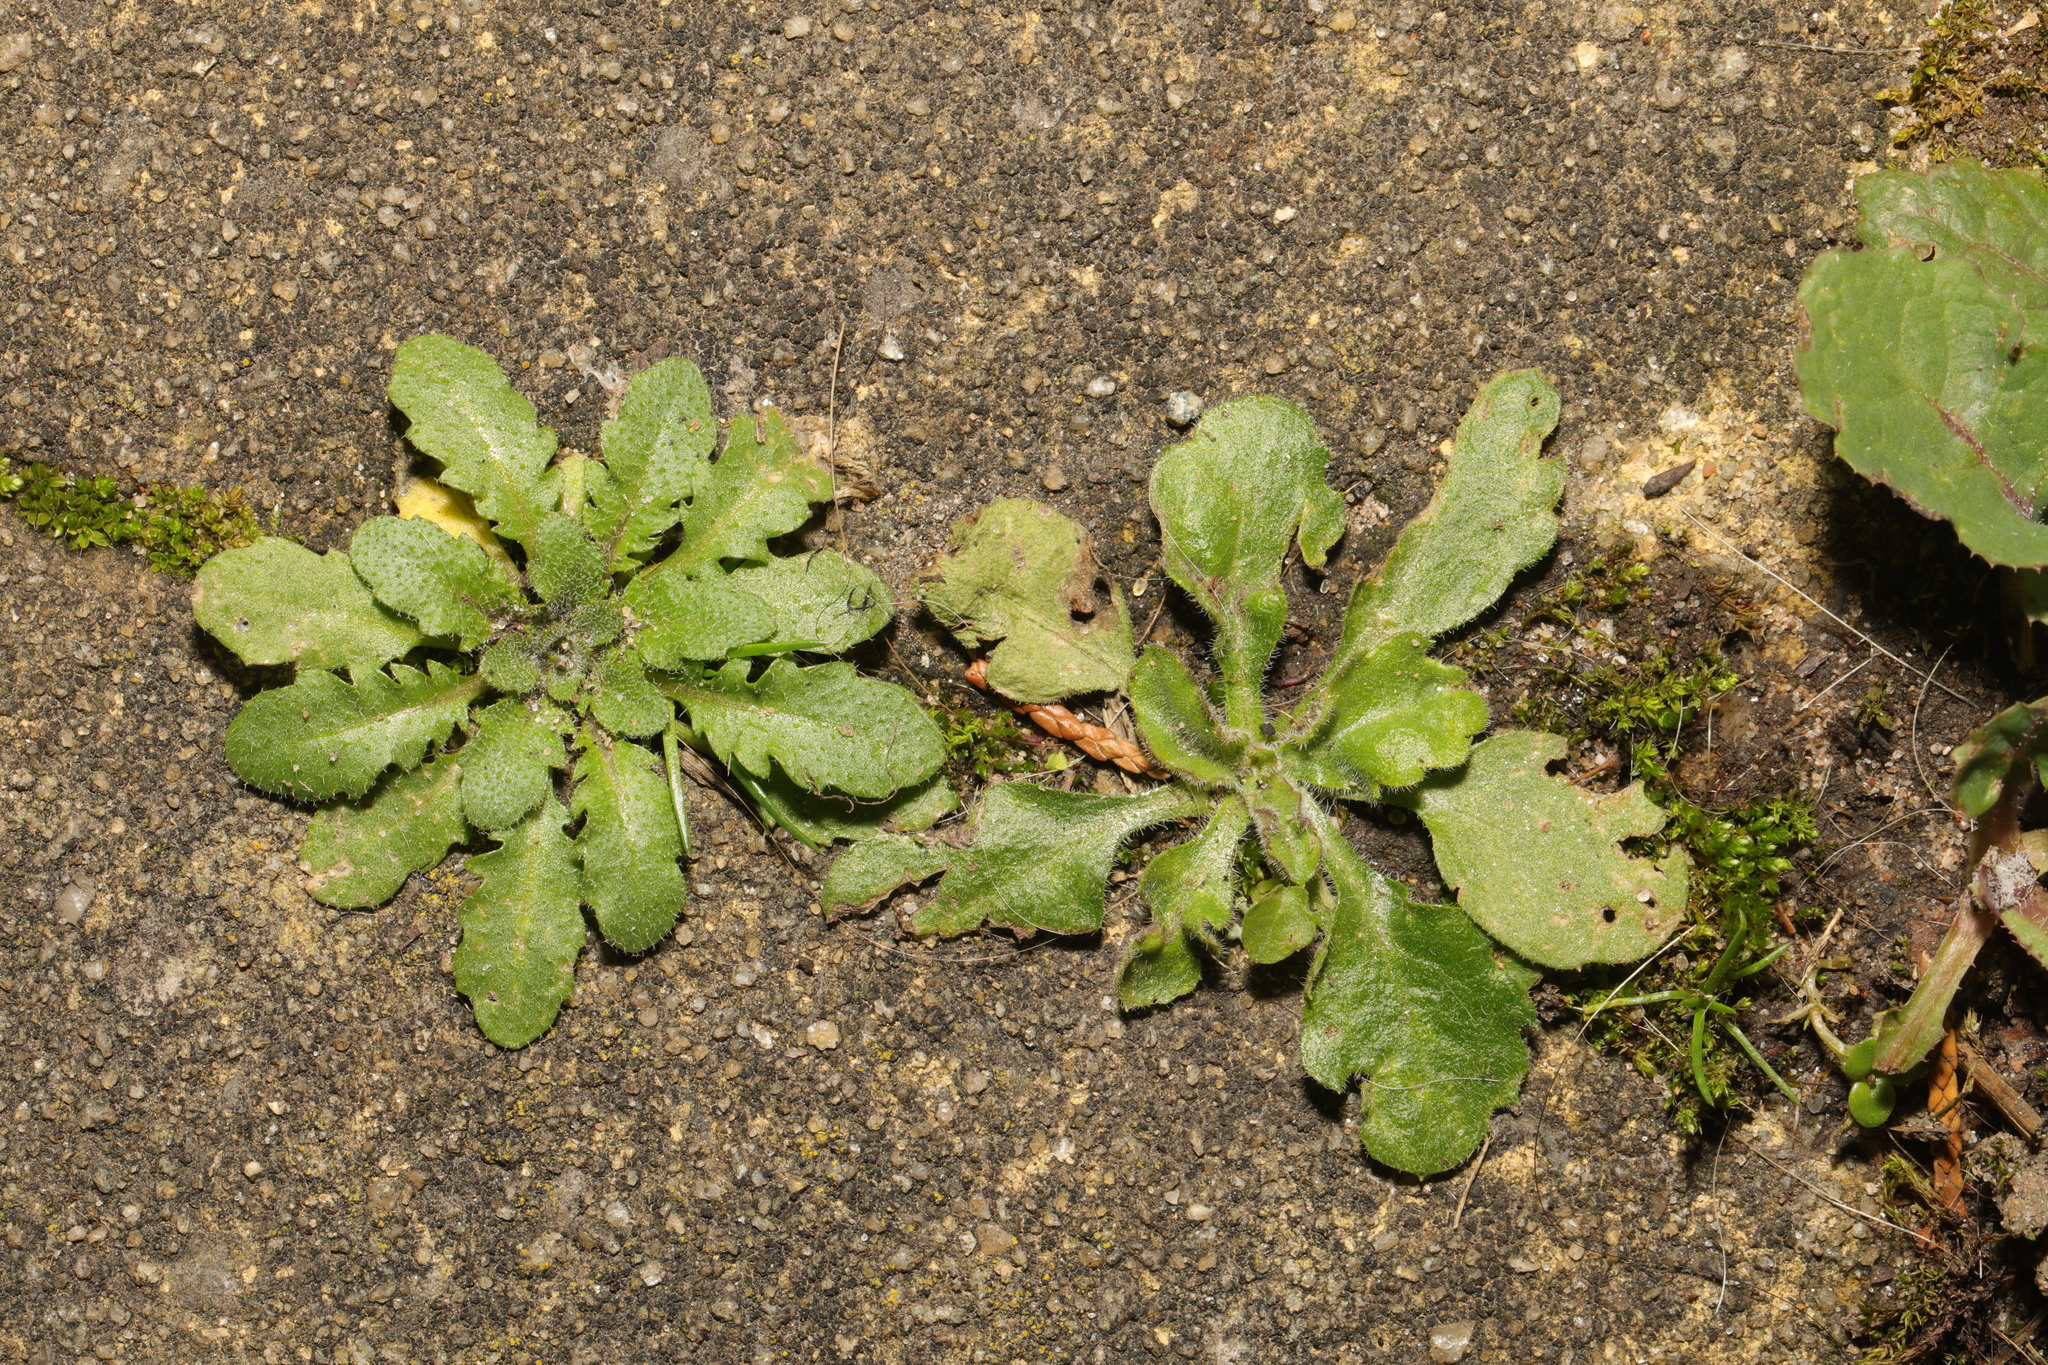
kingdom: Plantae
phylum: Tracheophyta
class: Magnoliopsida
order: Brassicales
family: Brassicaceae
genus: Arabidopsis
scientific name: Arabidopsis thaliana
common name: Thale cress
